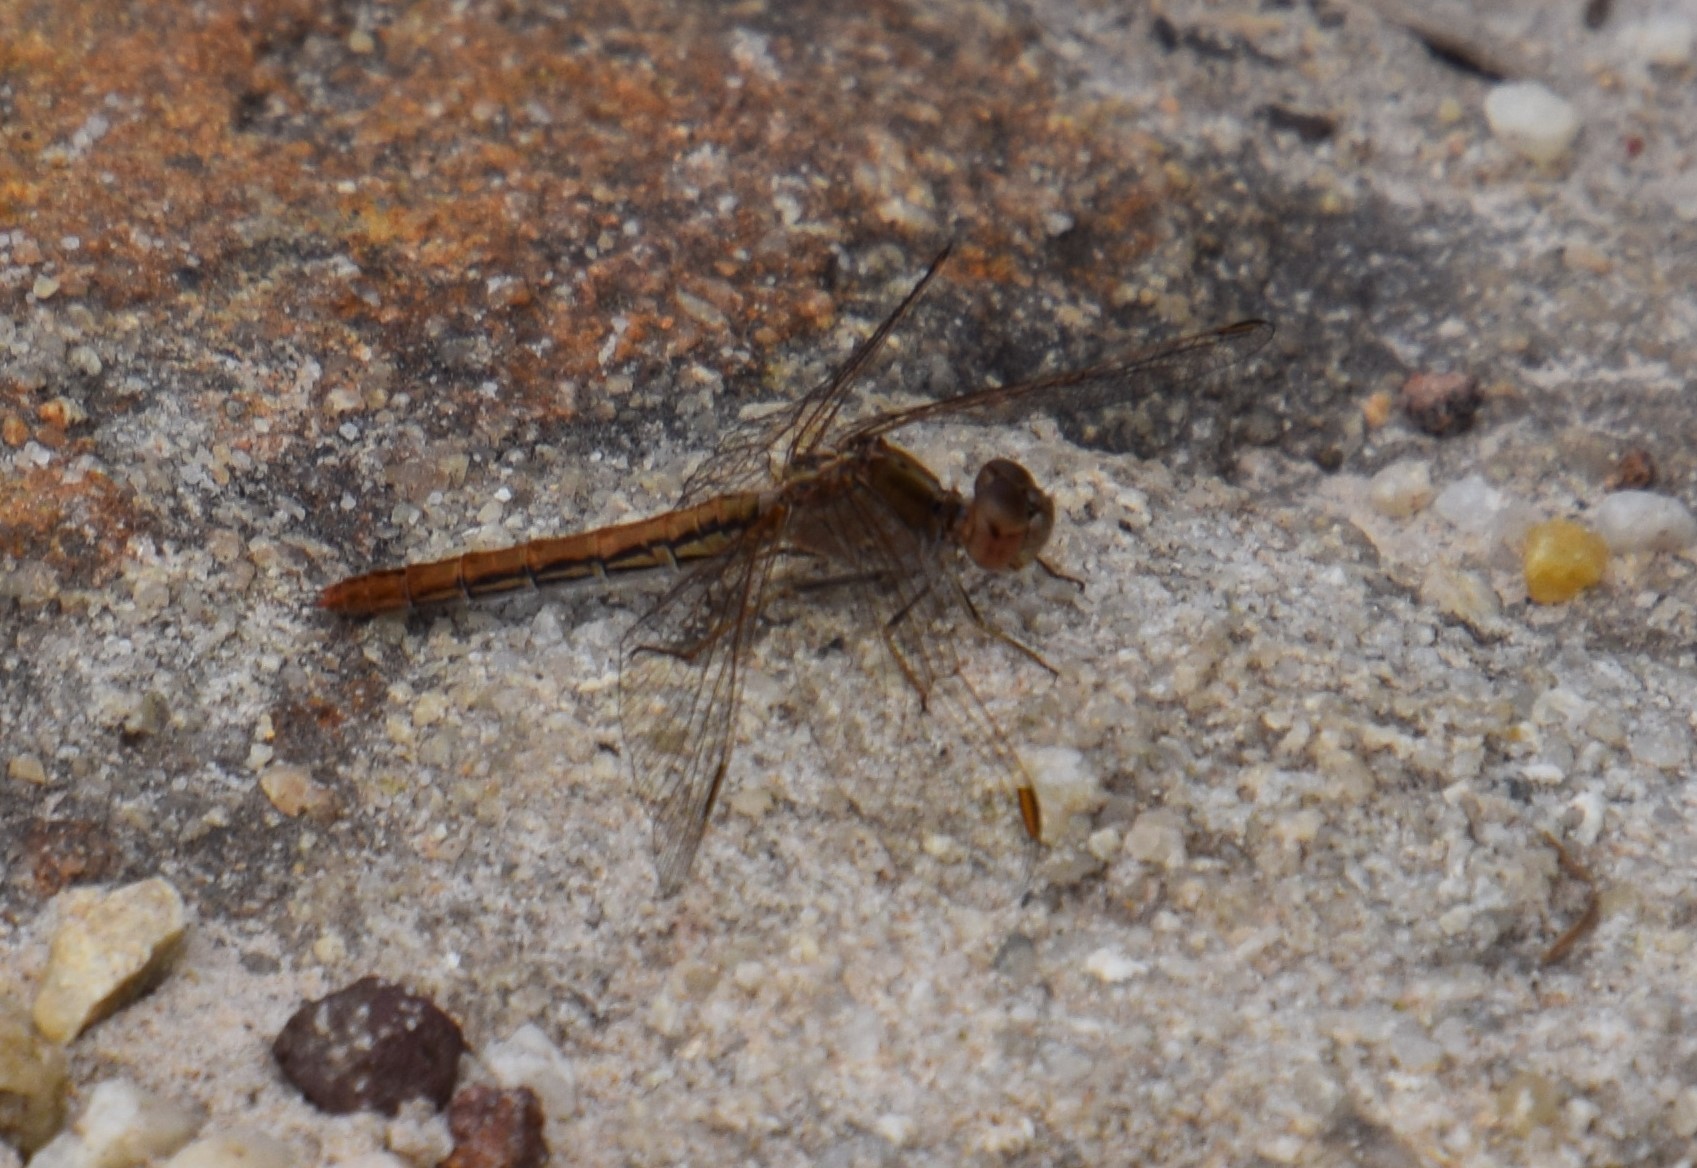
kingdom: Animalia
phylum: Arthropoda
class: Insecta
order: Odonata
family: Libellulidae
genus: Diplacodes
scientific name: Diplacodes haematodes
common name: Scarlet percher
